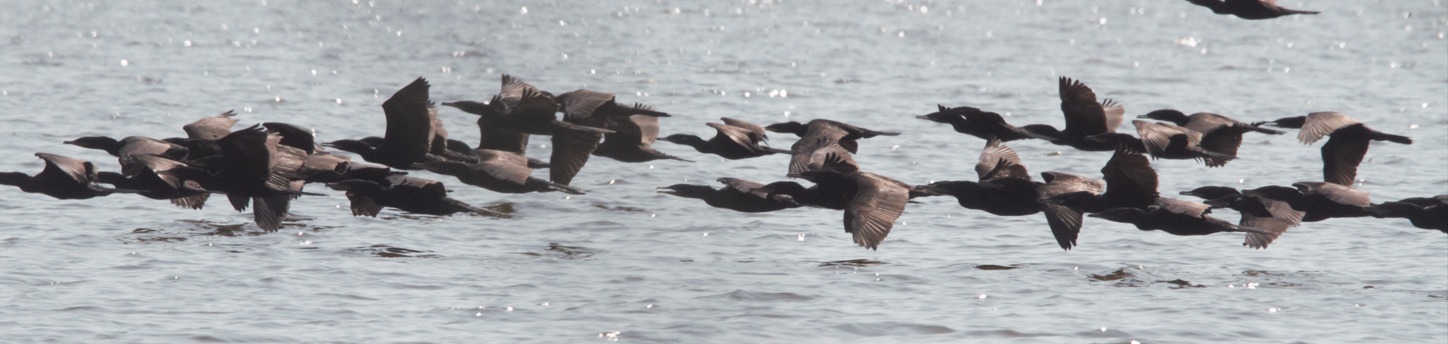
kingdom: Animalia
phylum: Chordata
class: Aves
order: Suliformes
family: Phalacrocoracidae
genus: Phalacrocorax
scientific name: Phalacrocorax brasilianus
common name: Neotropic cormorant
